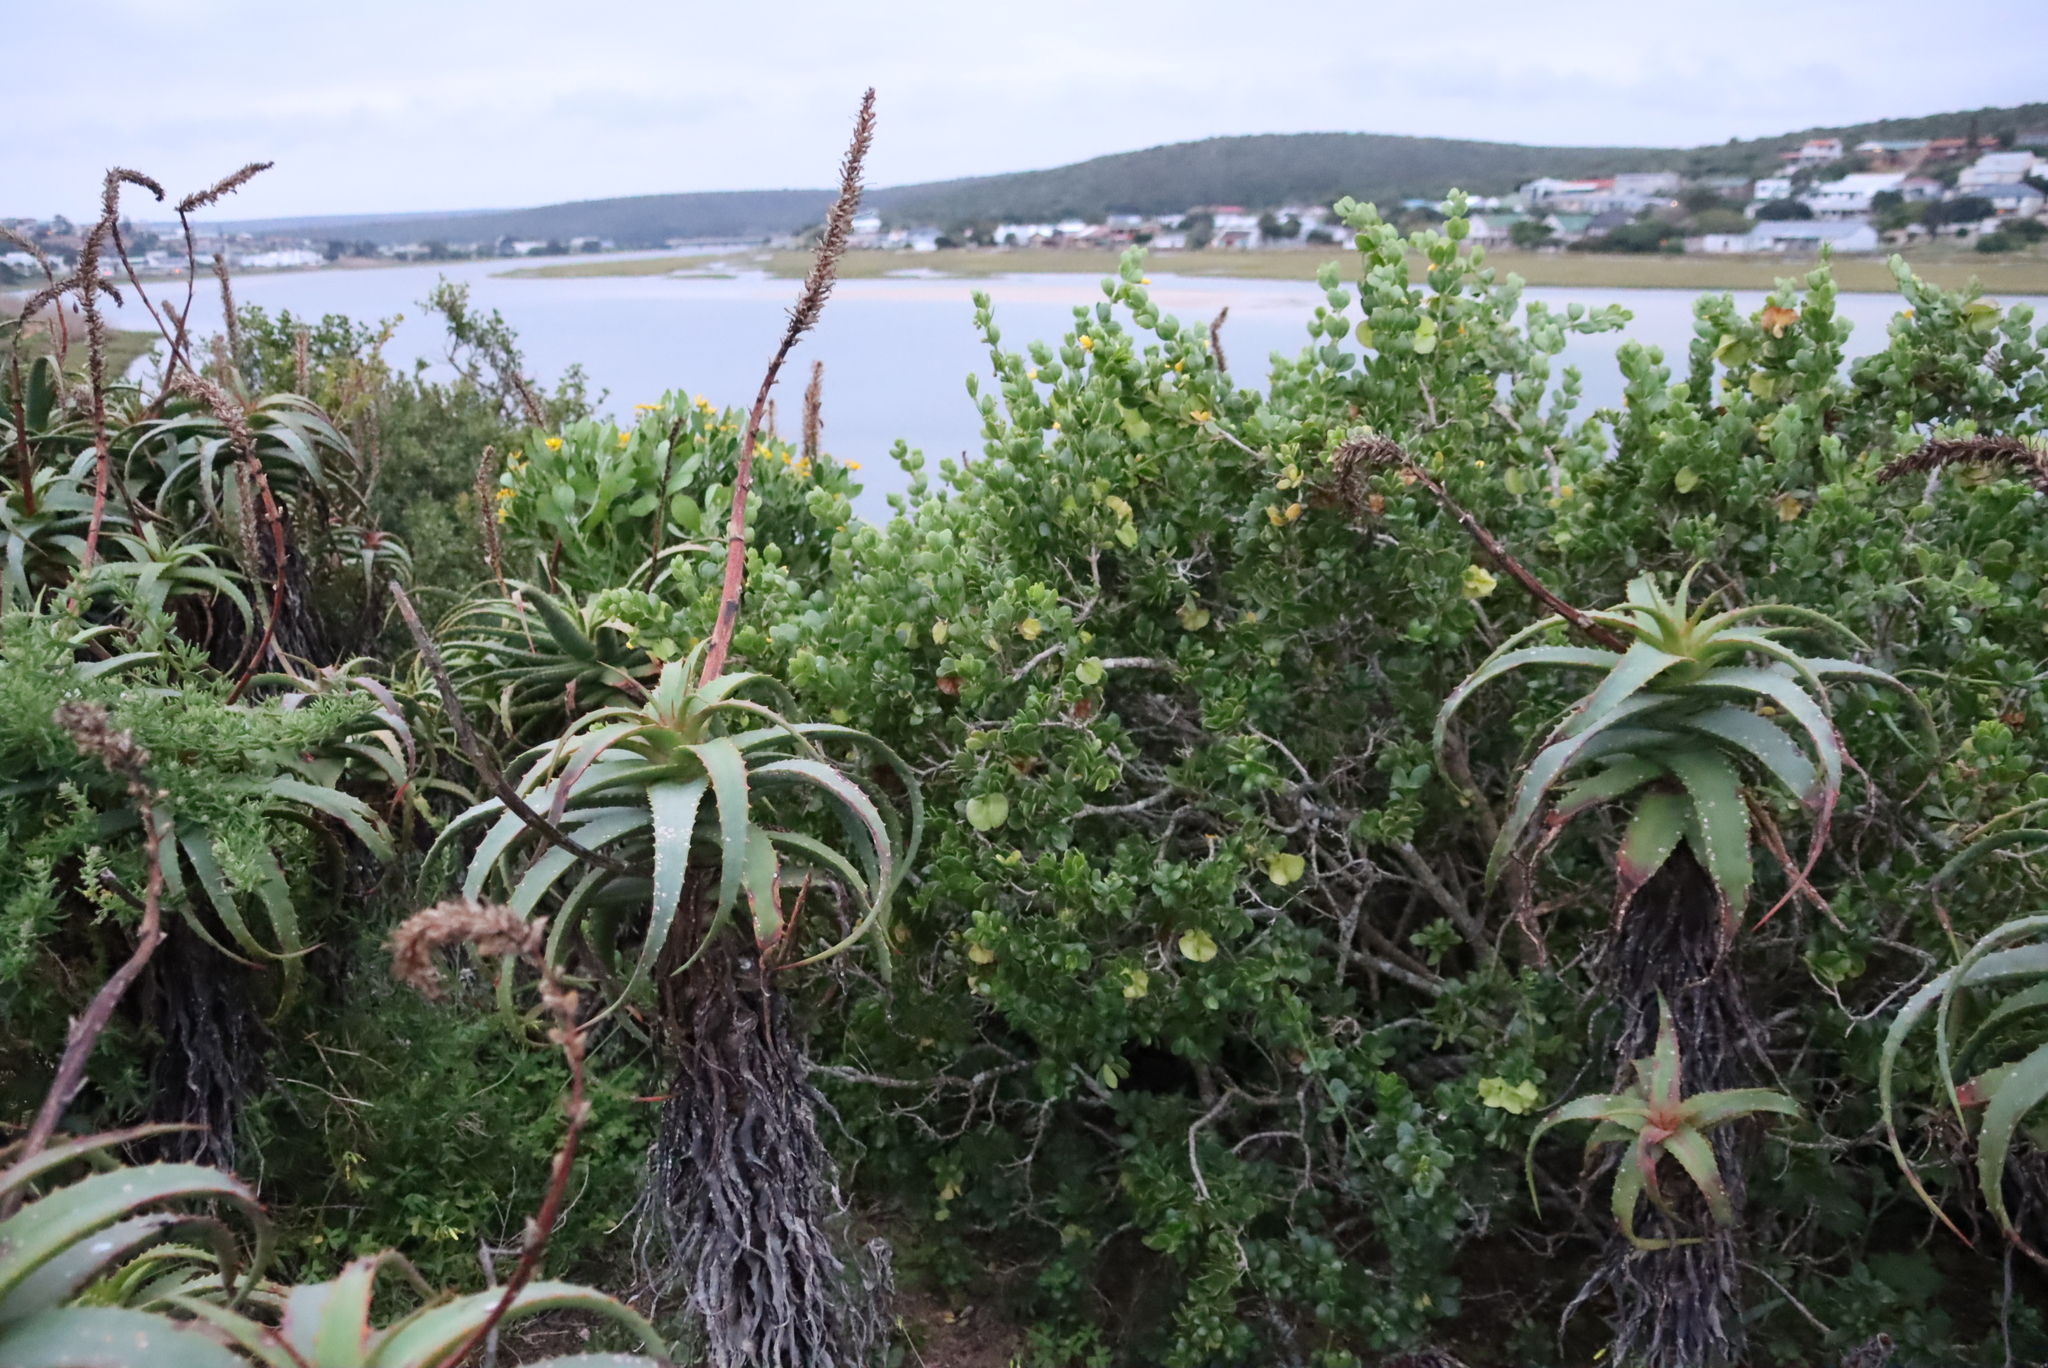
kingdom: Plantae
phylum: Tracheophyta
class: Magnoliopsida
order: Zygophyllales
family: Zygophyllaceae
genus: Roepera
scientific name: Roepera morgsana
